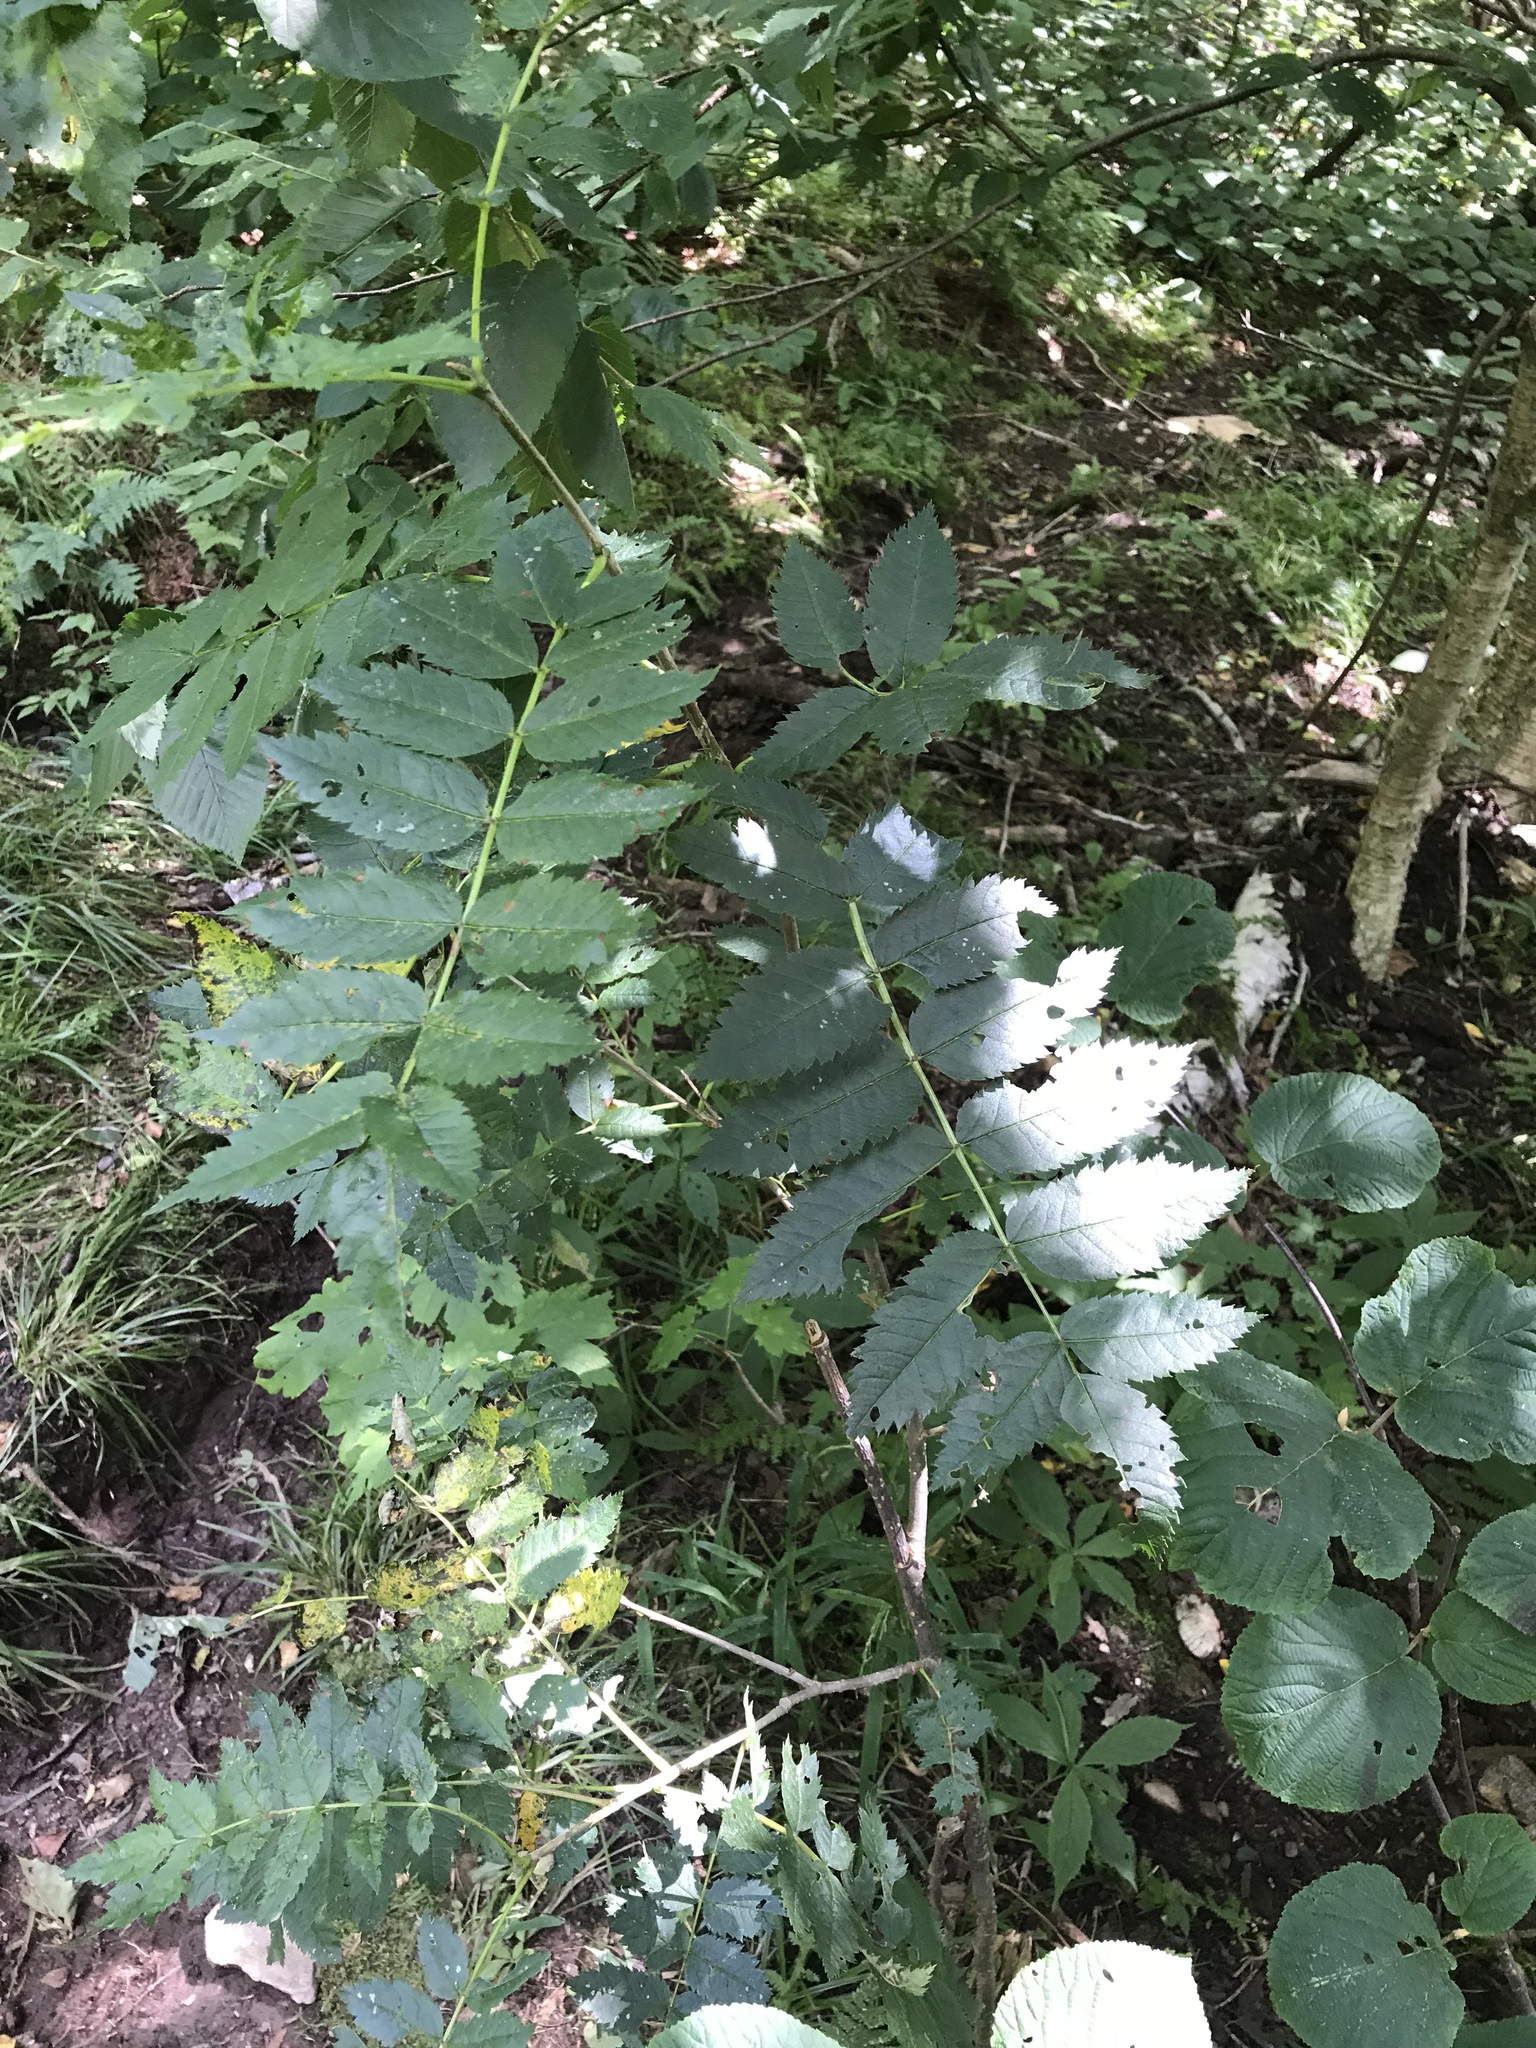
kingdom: Plantae
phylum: Tracheophyta
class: Magnoliopsida
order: Rosales
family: Rosaceae
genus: Sorbus
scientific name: Sorbus americana
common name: American mountain-ash
